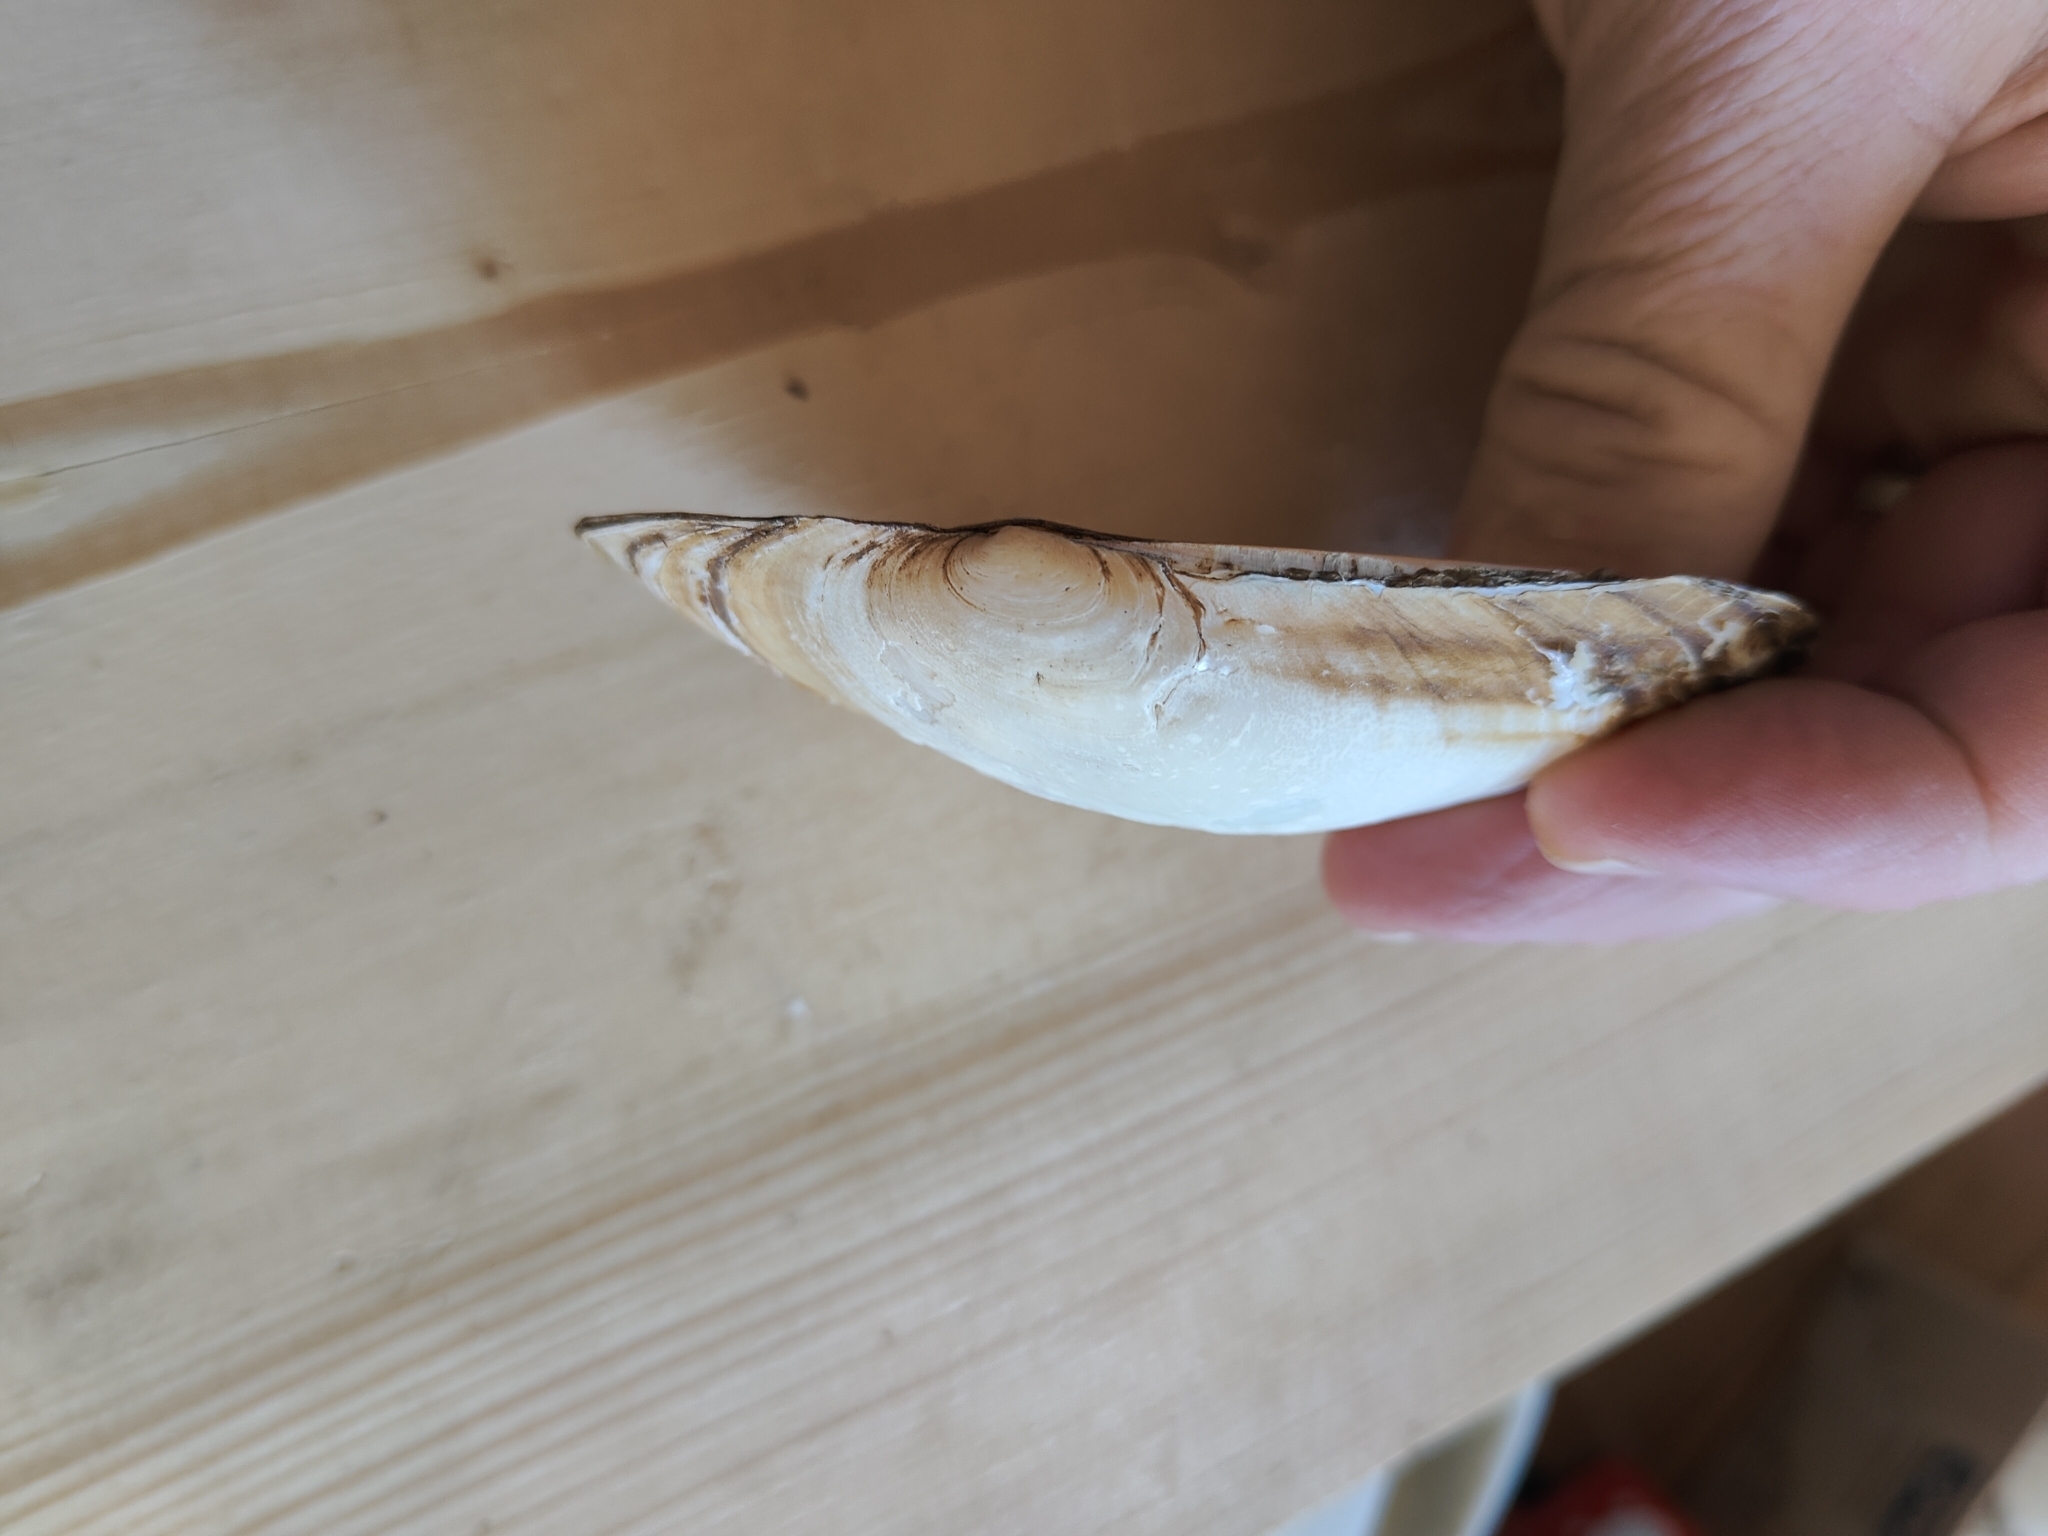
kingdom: Animalia
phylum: Mollusca
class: Bivalvia
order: Unionida
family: Unionidae
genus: Potamilus
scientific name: Potamilus fragilis
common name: Fragile papershell
